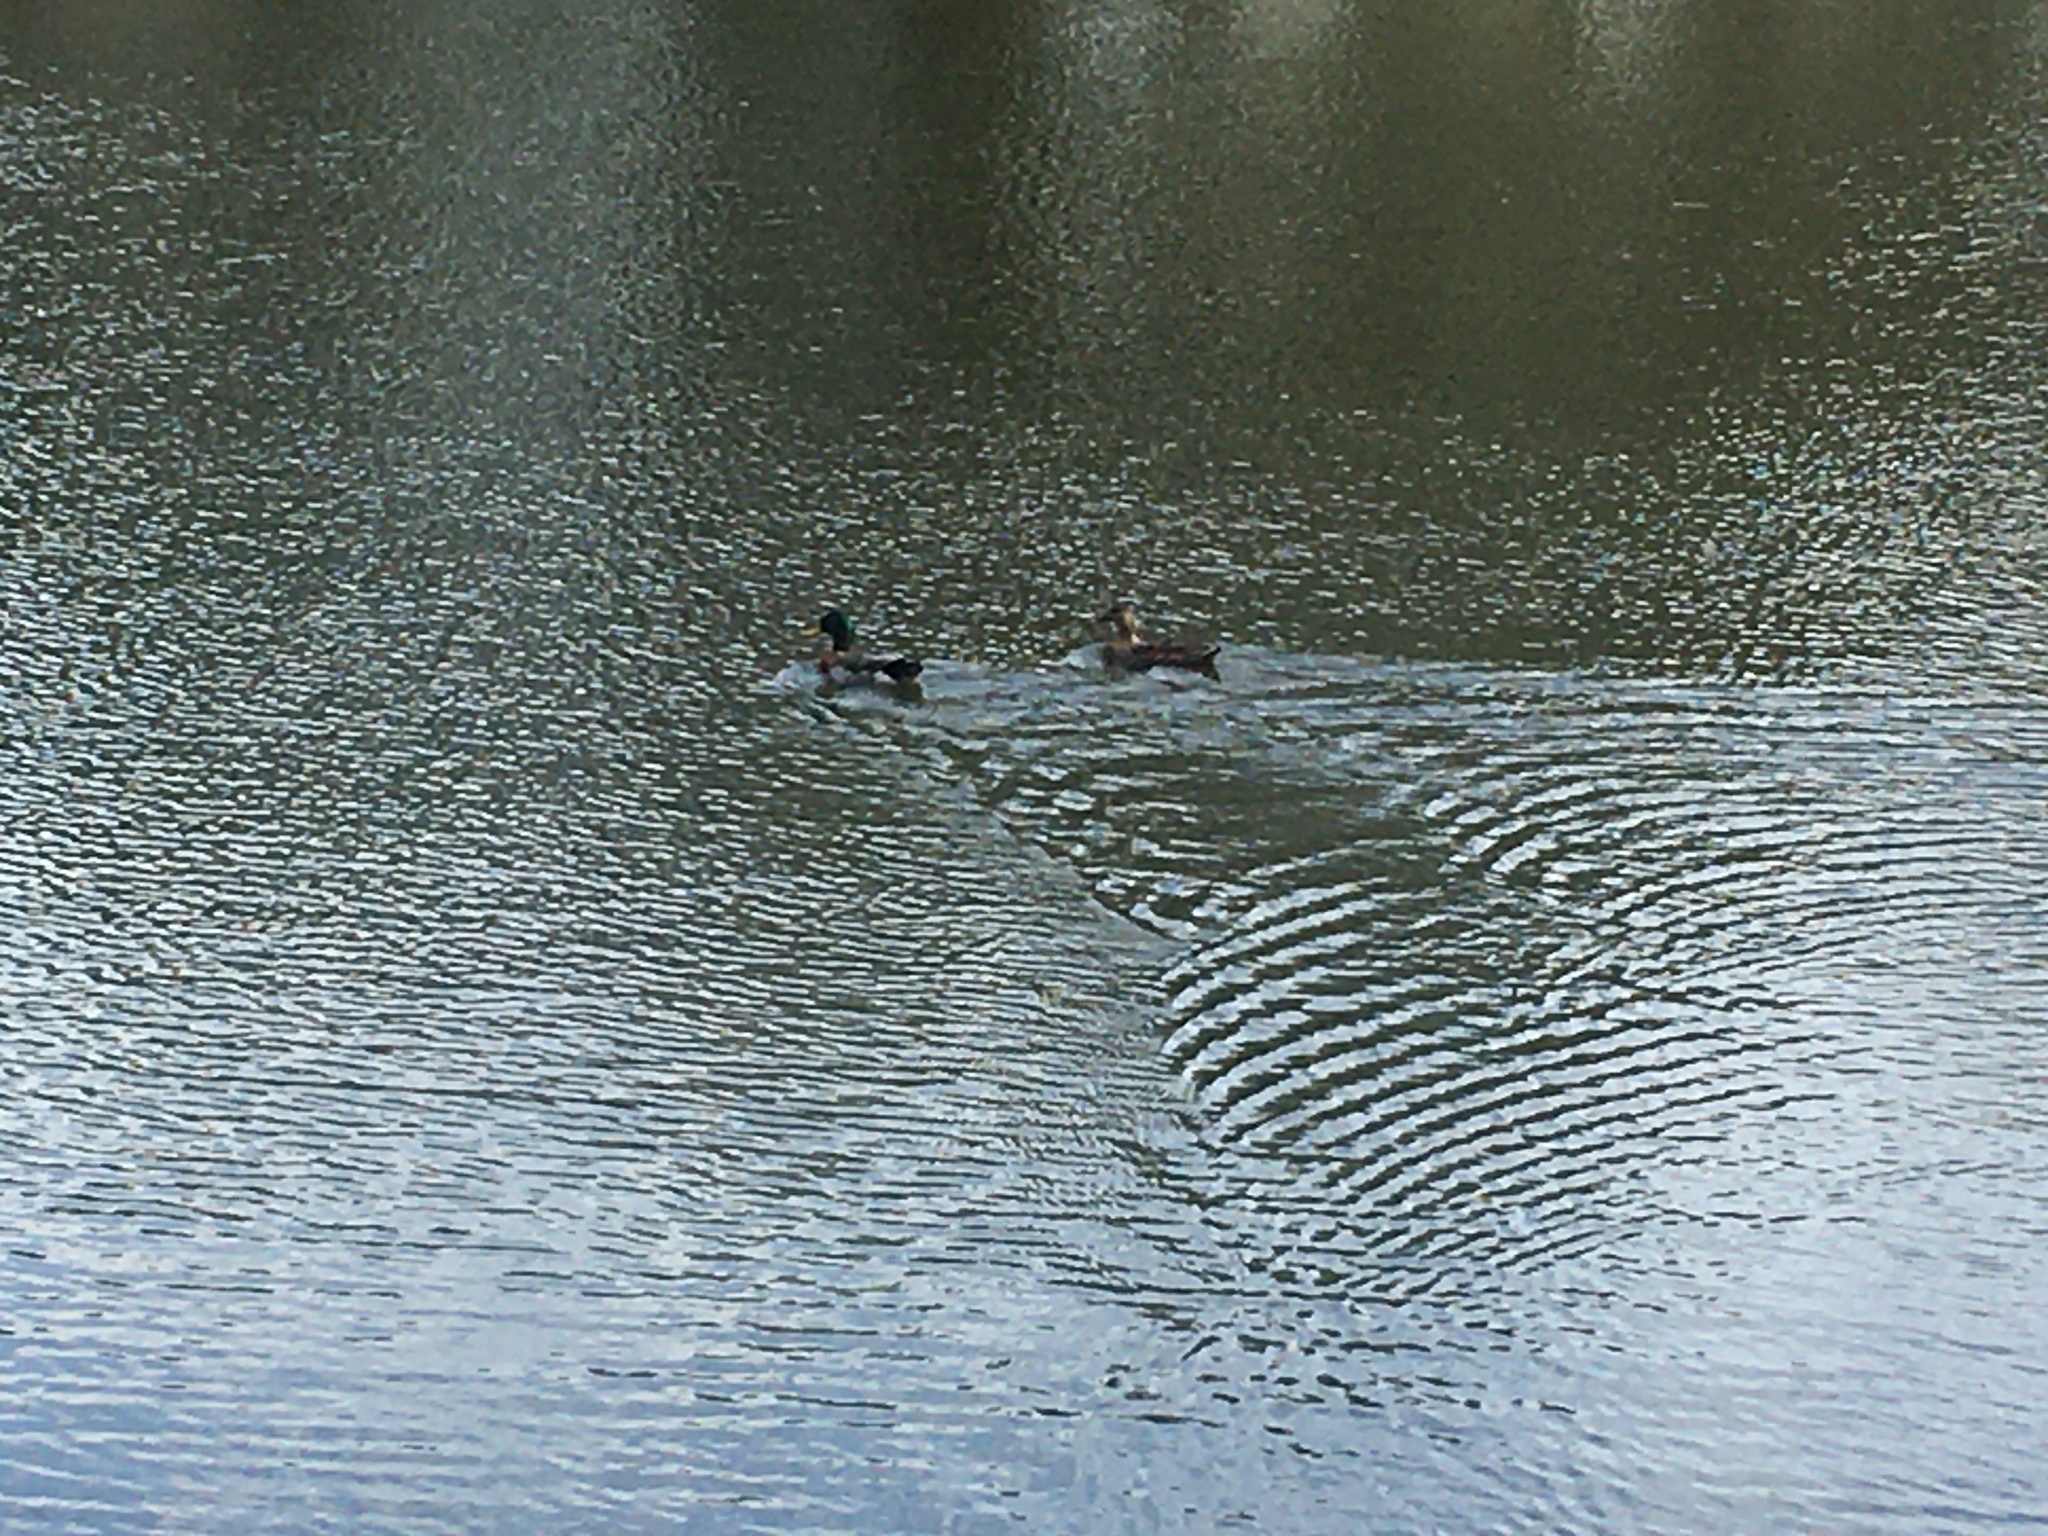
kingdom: Animalia
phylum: Chordata
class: Aves
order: Anseriformes
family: Anatidae
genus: Anas
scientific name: Anas platyrhynchos
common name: Mallard
